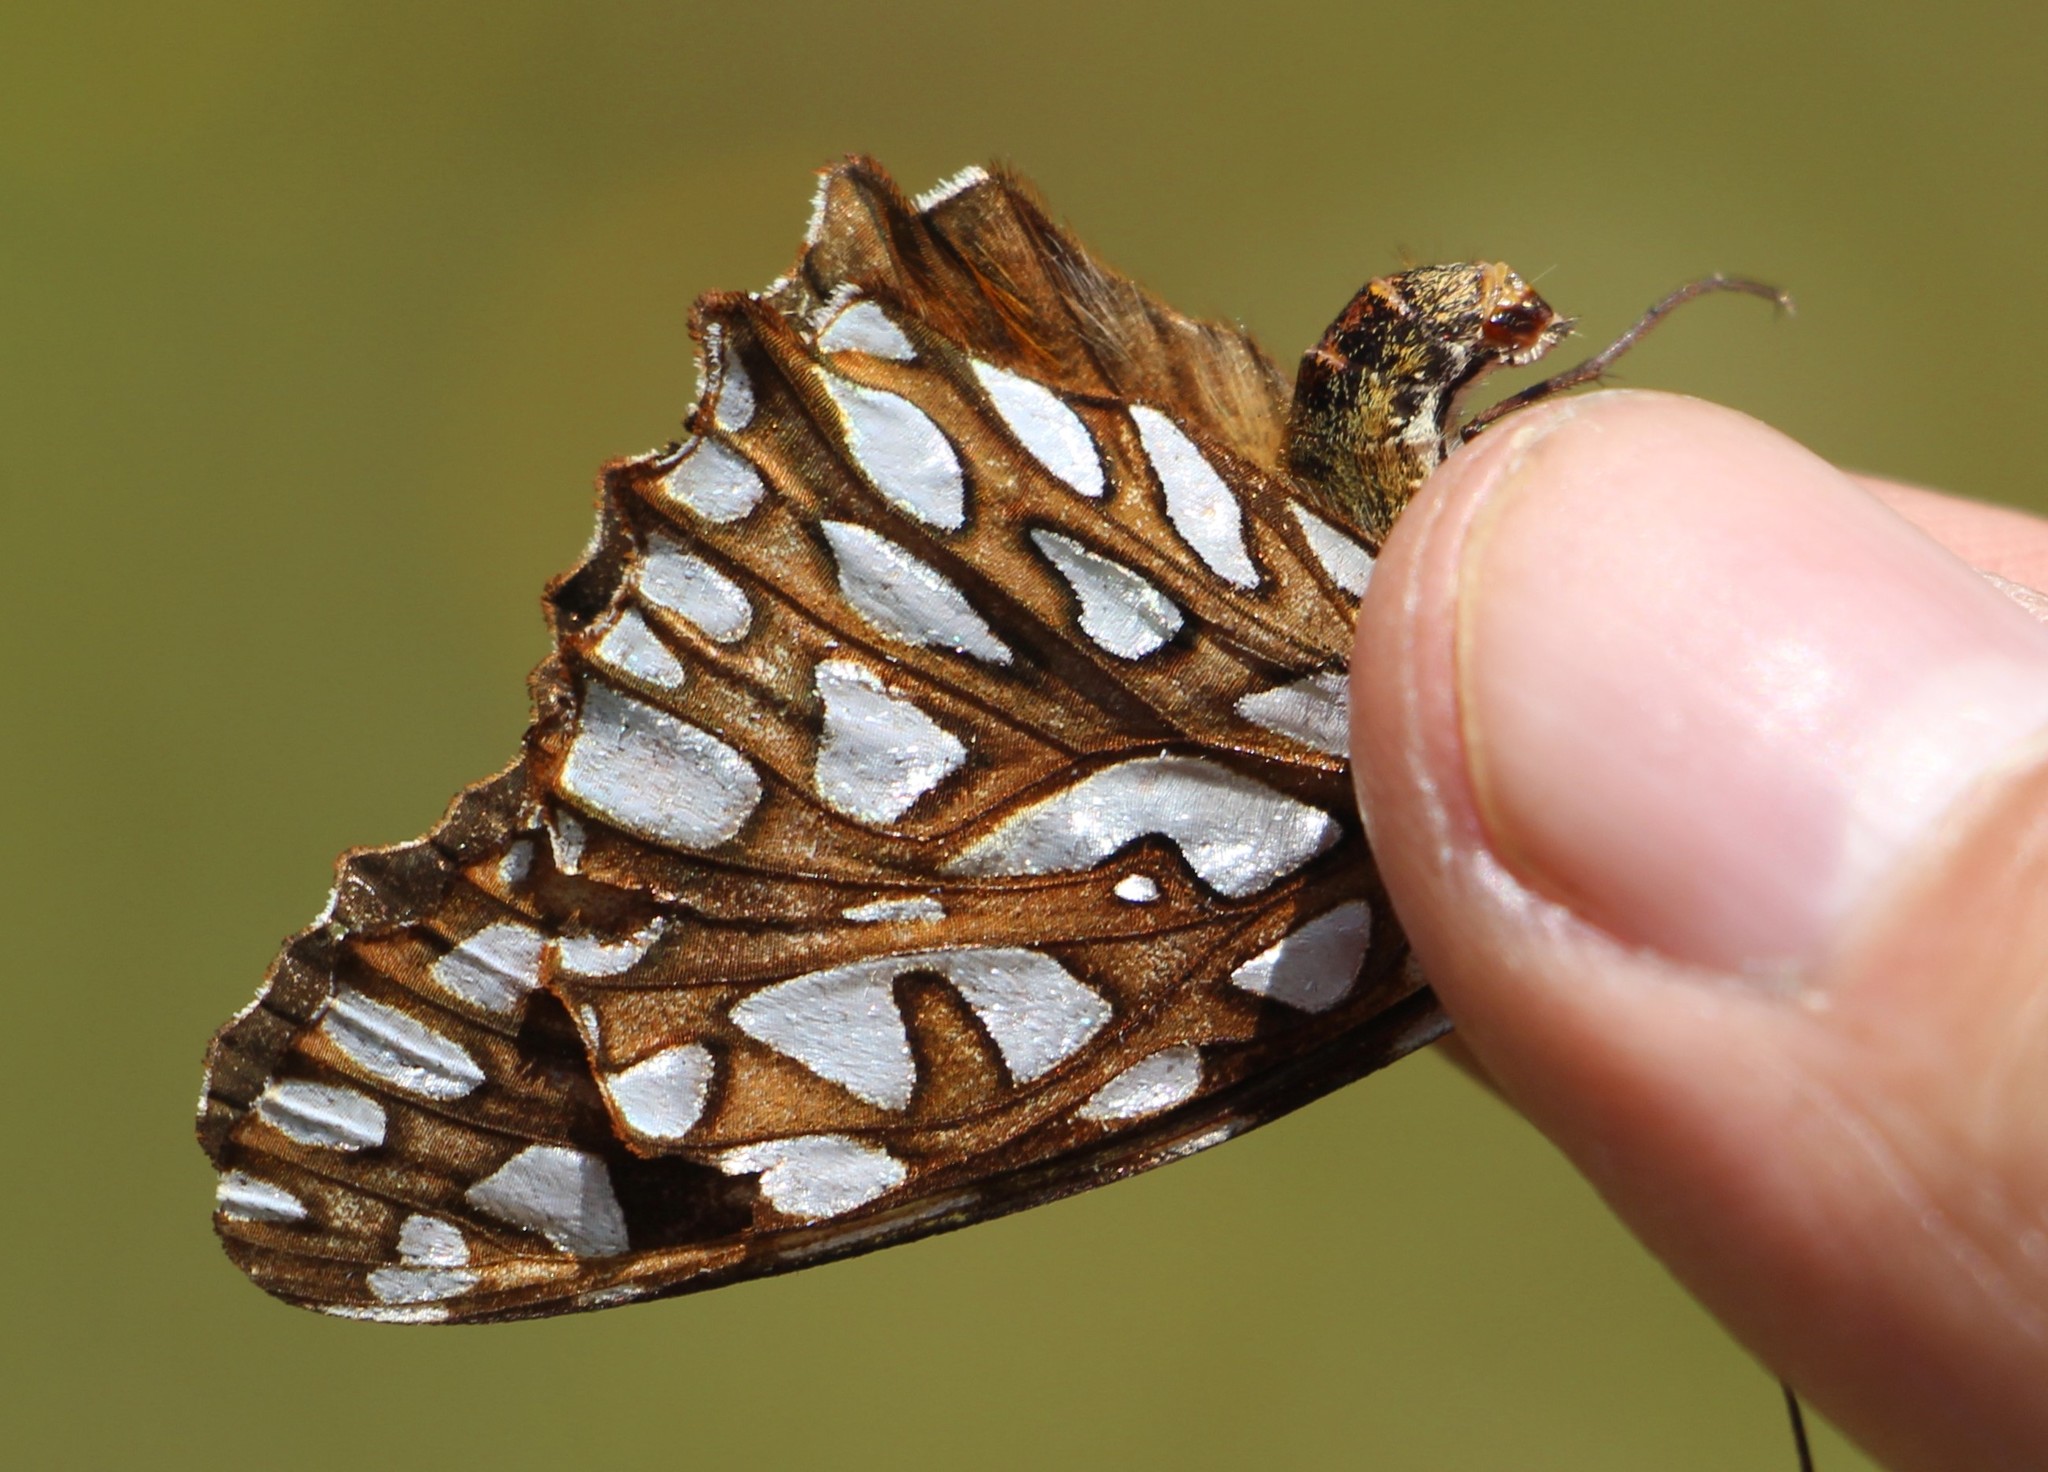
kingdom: Animalia
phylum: Arthropoda
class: Insecta
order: Lepidoptera
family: Nymphalidae
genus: Dione
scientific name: Dione glycera
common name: Andean silverspot
